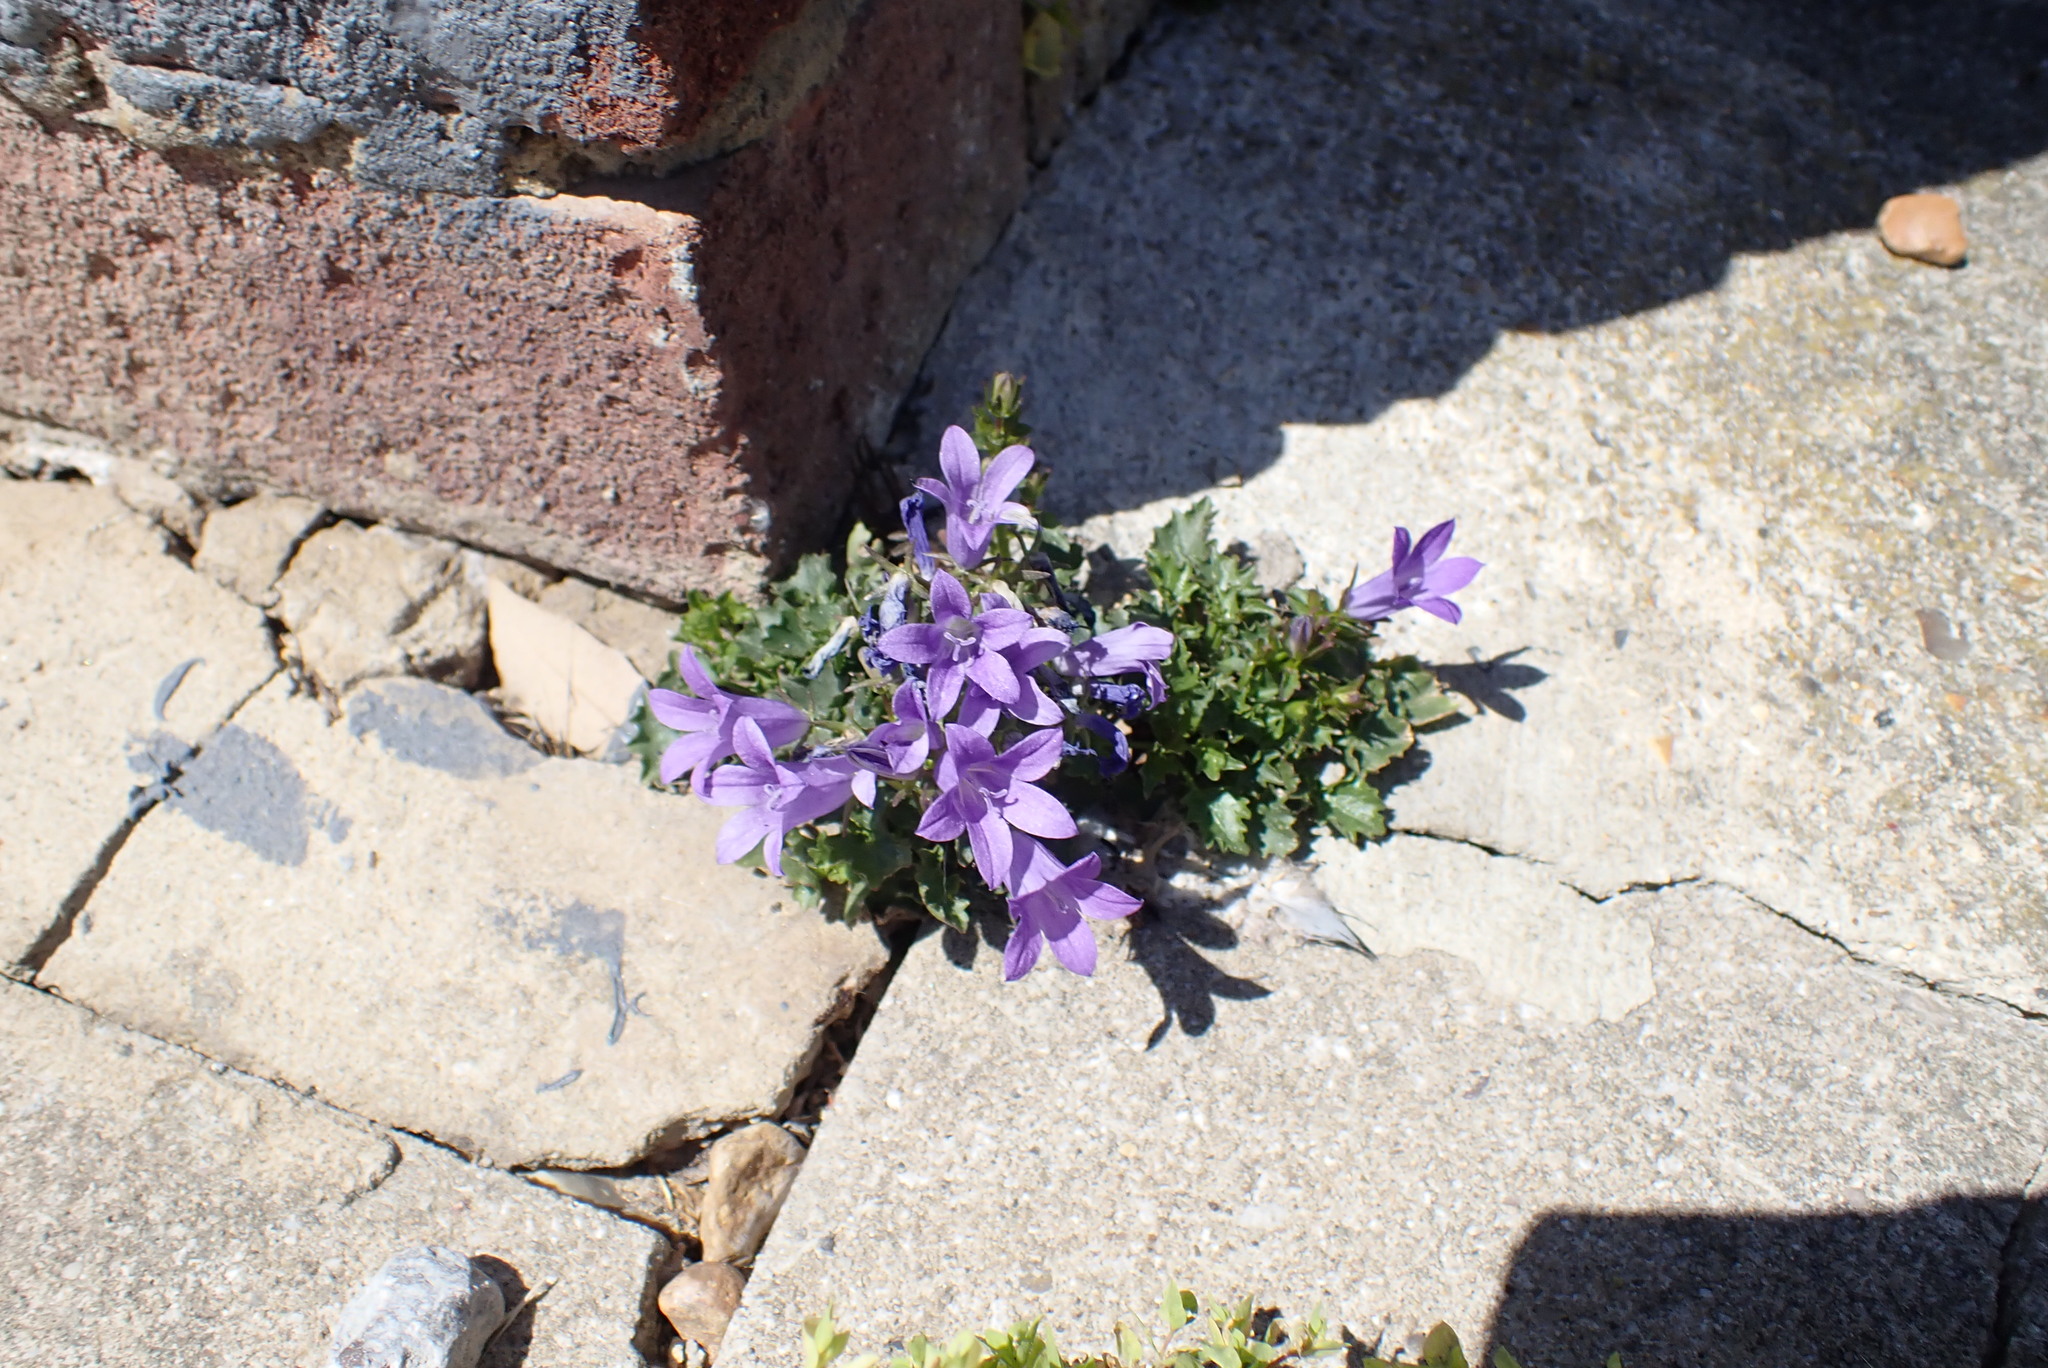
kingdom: Plantae
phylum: Tracheophyta
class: Magnoliopsida
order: Asterales
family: Campanulaceae
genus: Campanula
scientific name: Campanula portenschlagiana
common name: Adria bellflower
